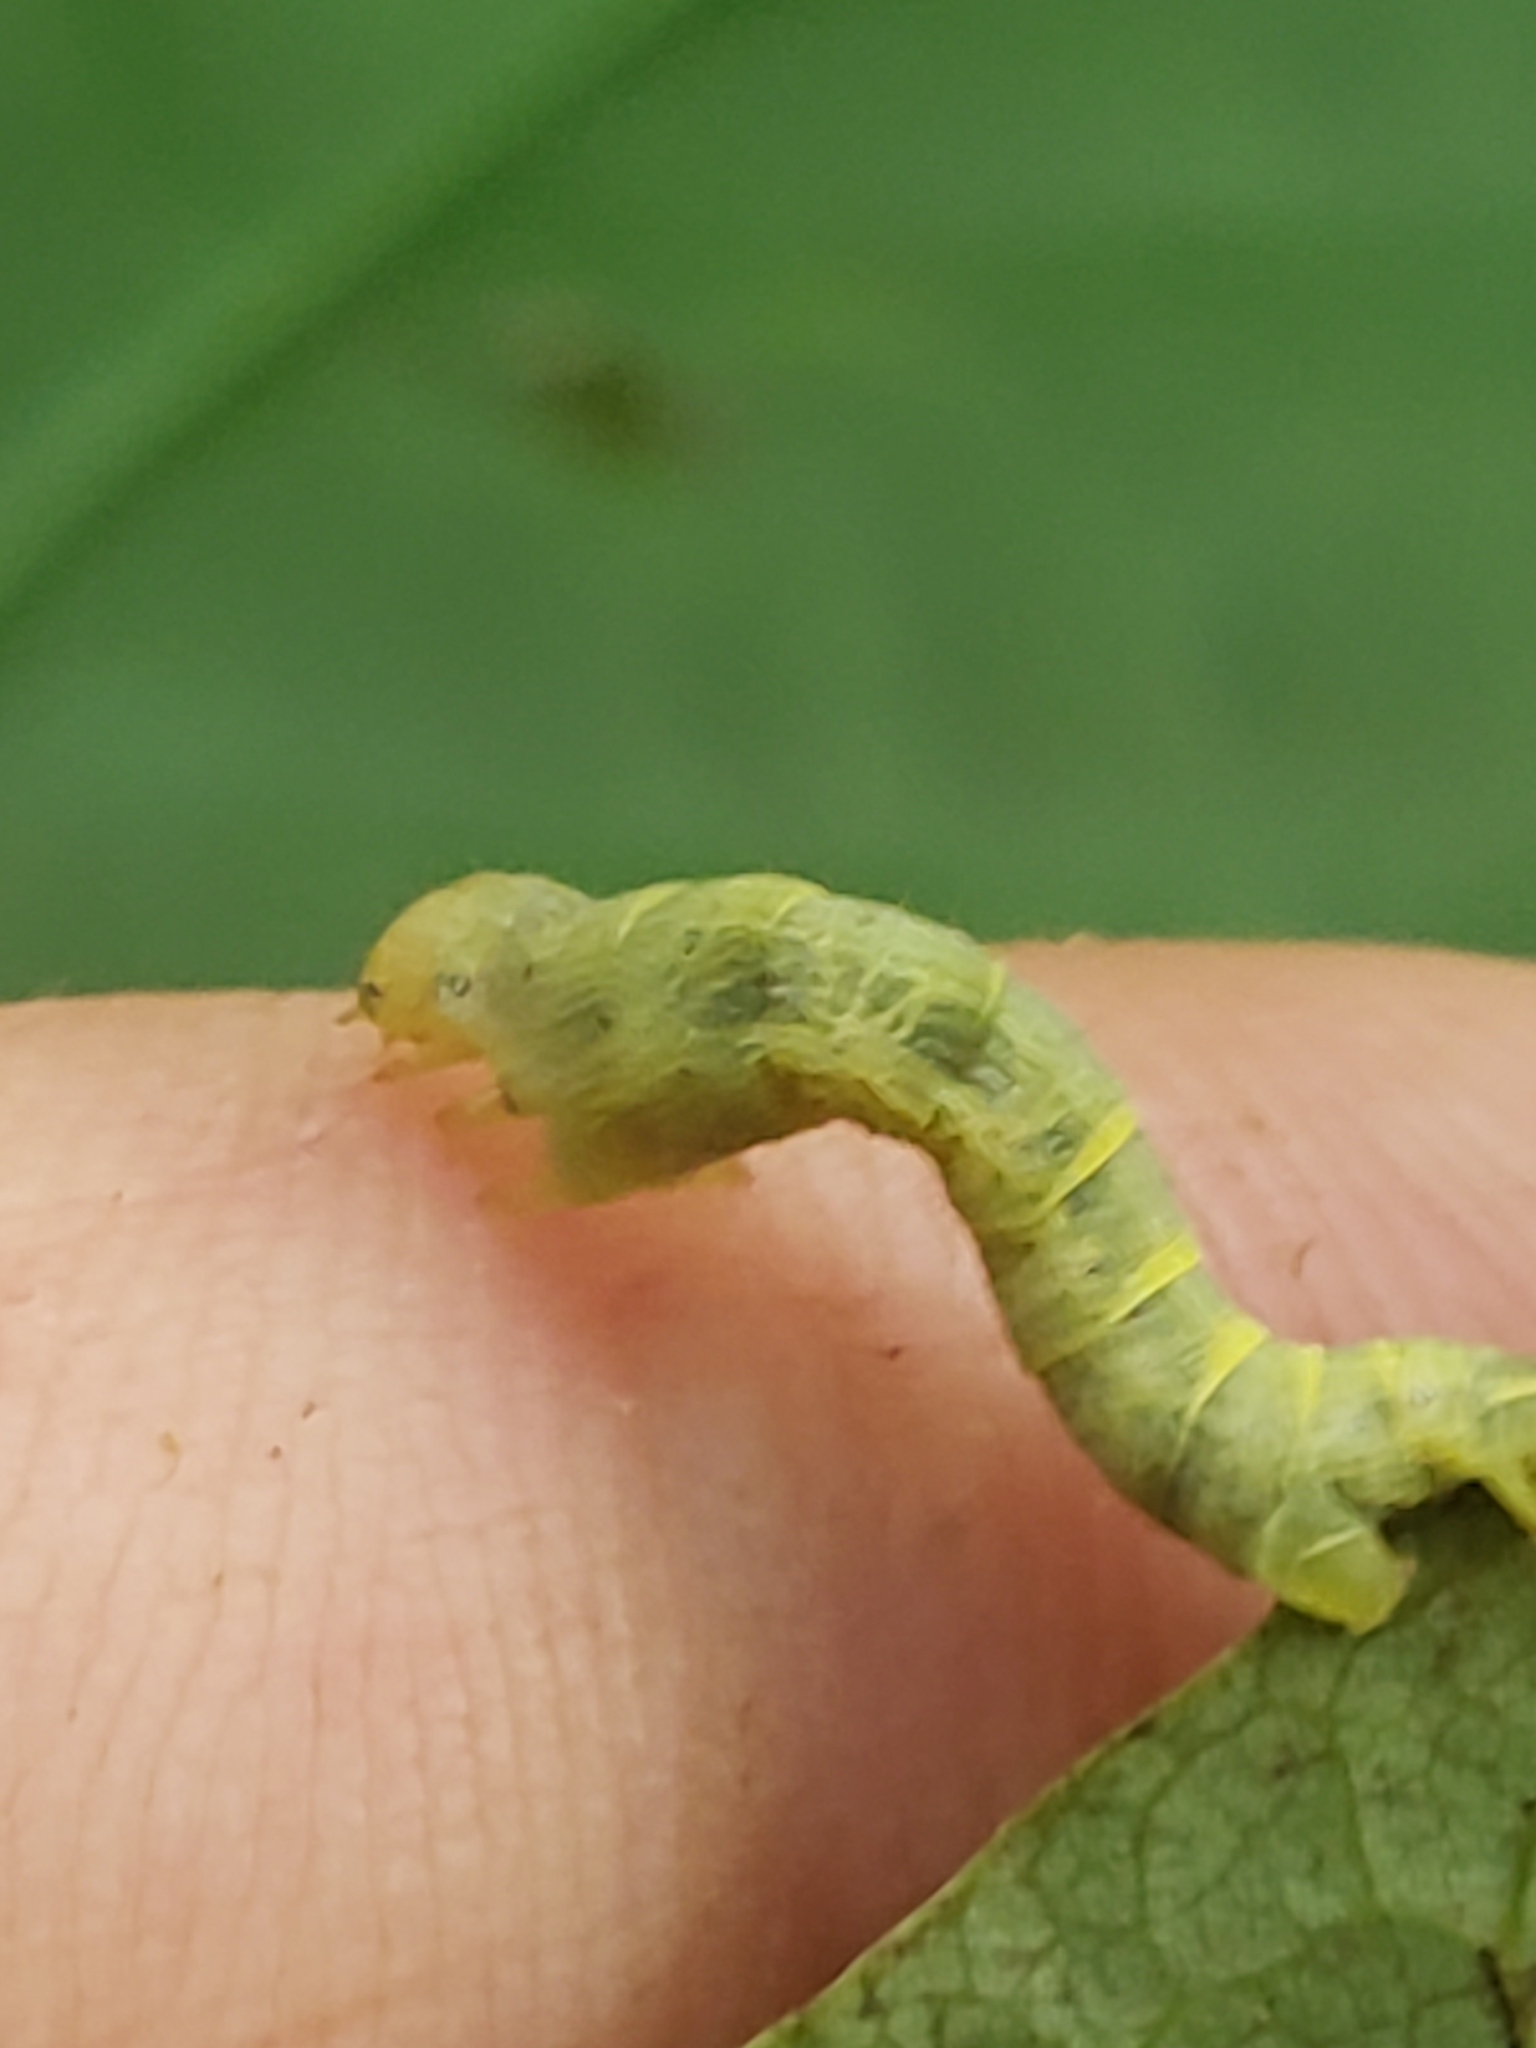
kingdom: Animalia
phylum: Arthropoda
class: Insecta
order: Lepidoptera
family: Geometridae
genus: Epimecis
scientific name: Epimecis hortaria
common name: Tulip-tree beauty
